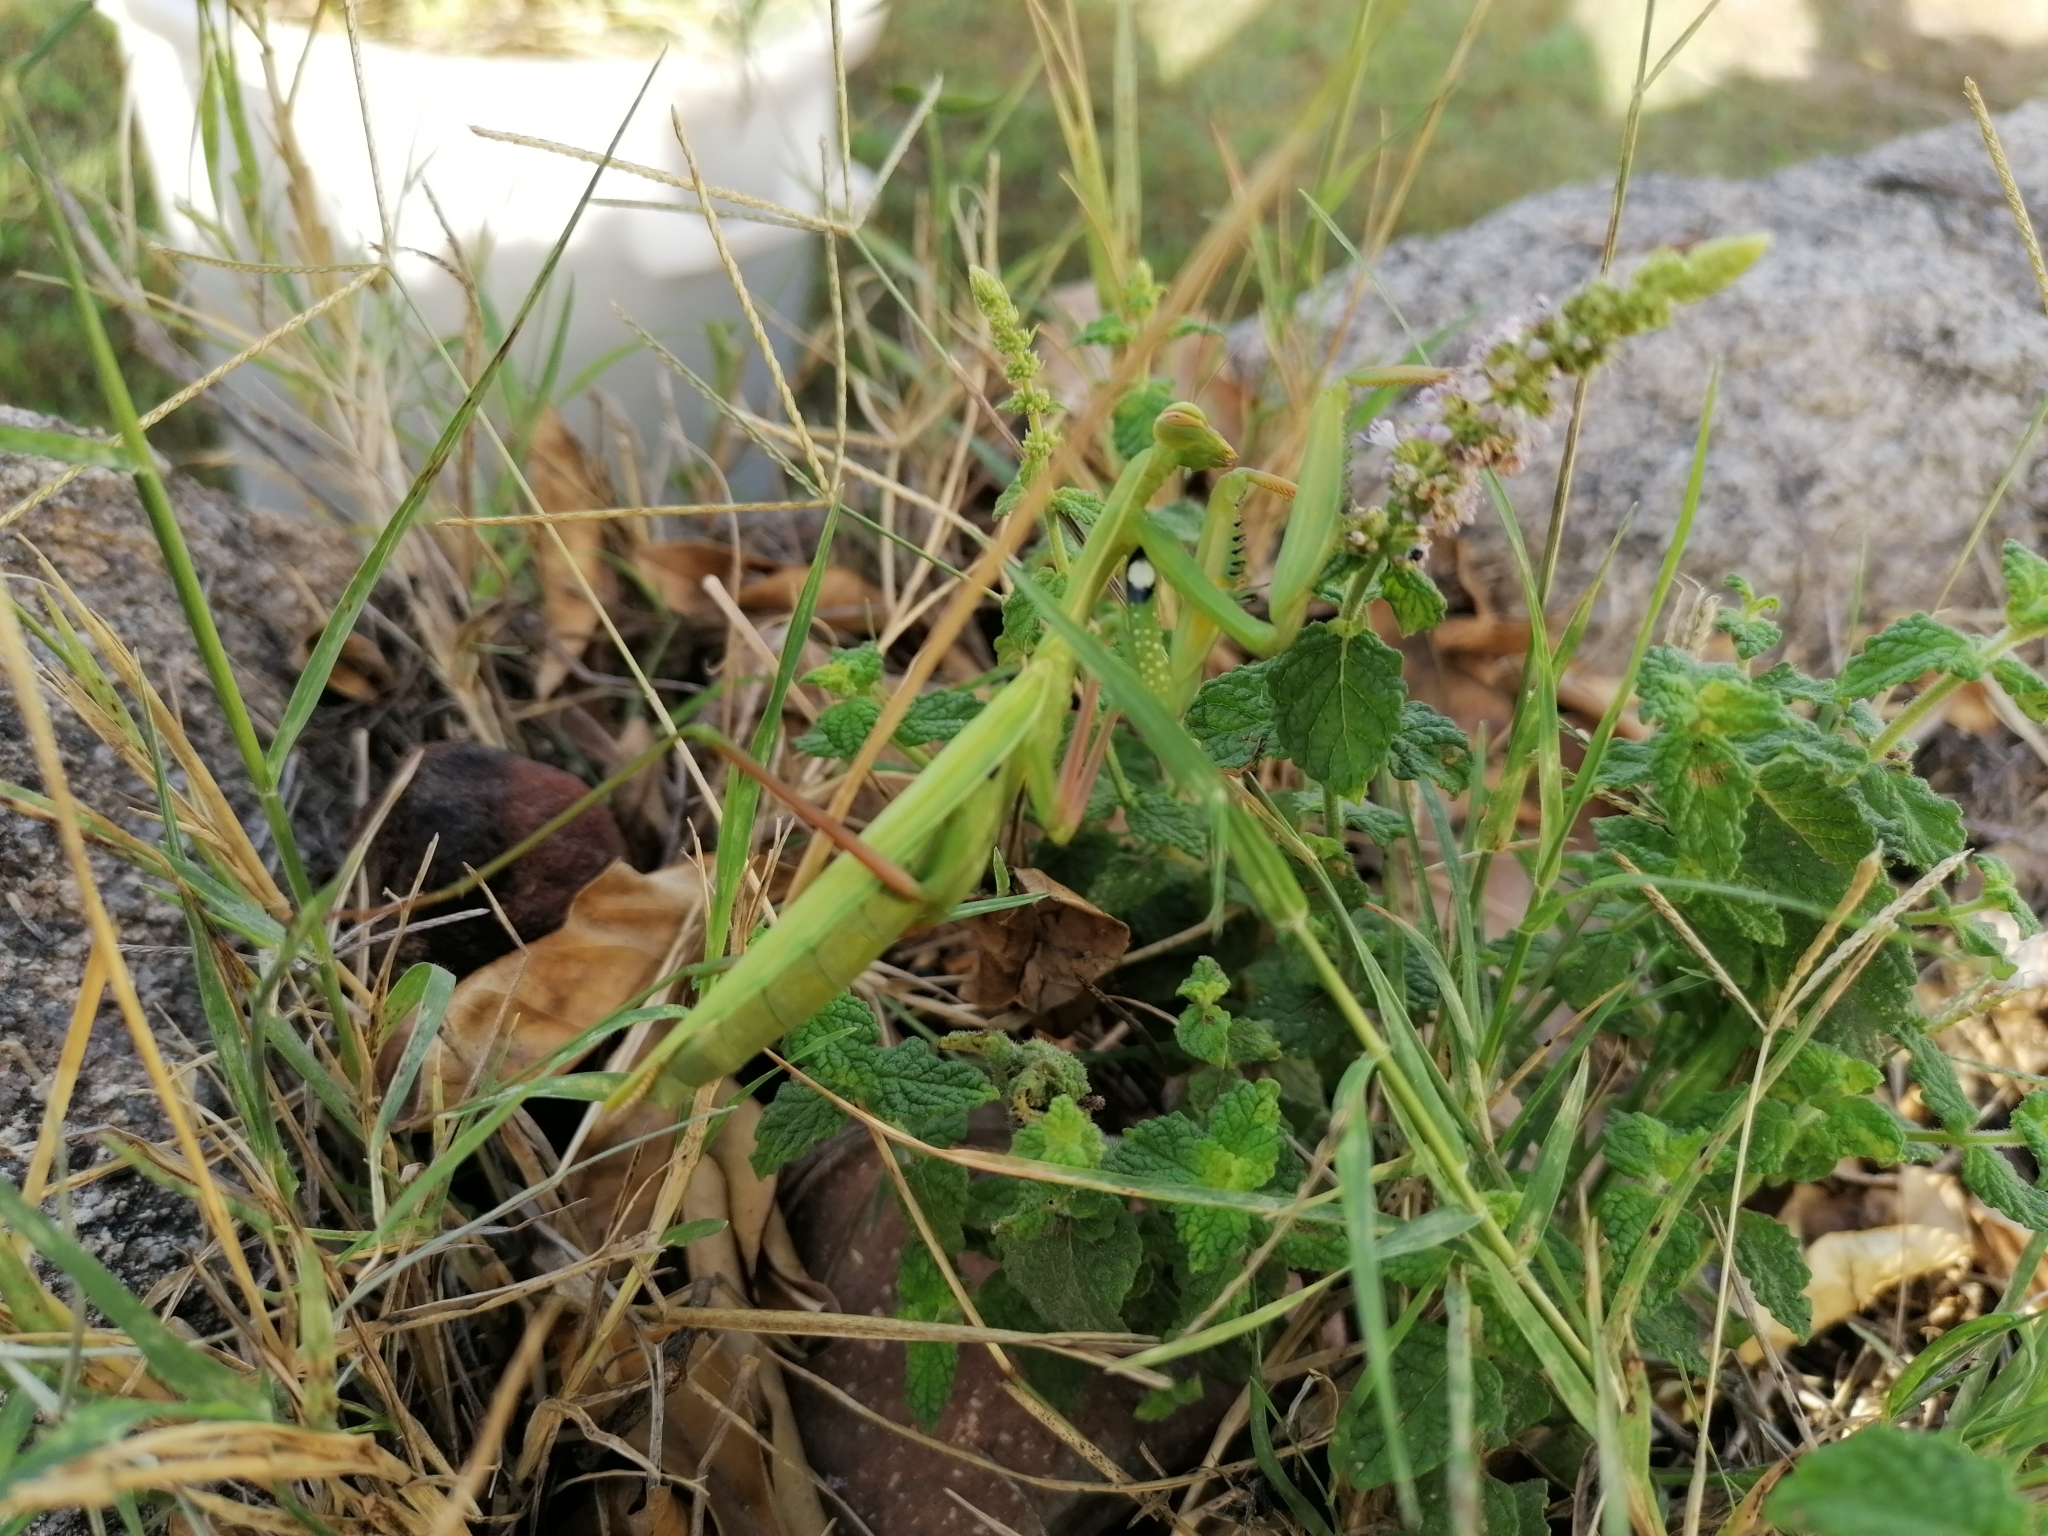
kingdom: Animalia
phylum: Arthropoda
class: Insecta
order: Mantodea
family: Mantidae
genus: Mantis
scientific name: Mantis religiosa
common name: Praying mantis
